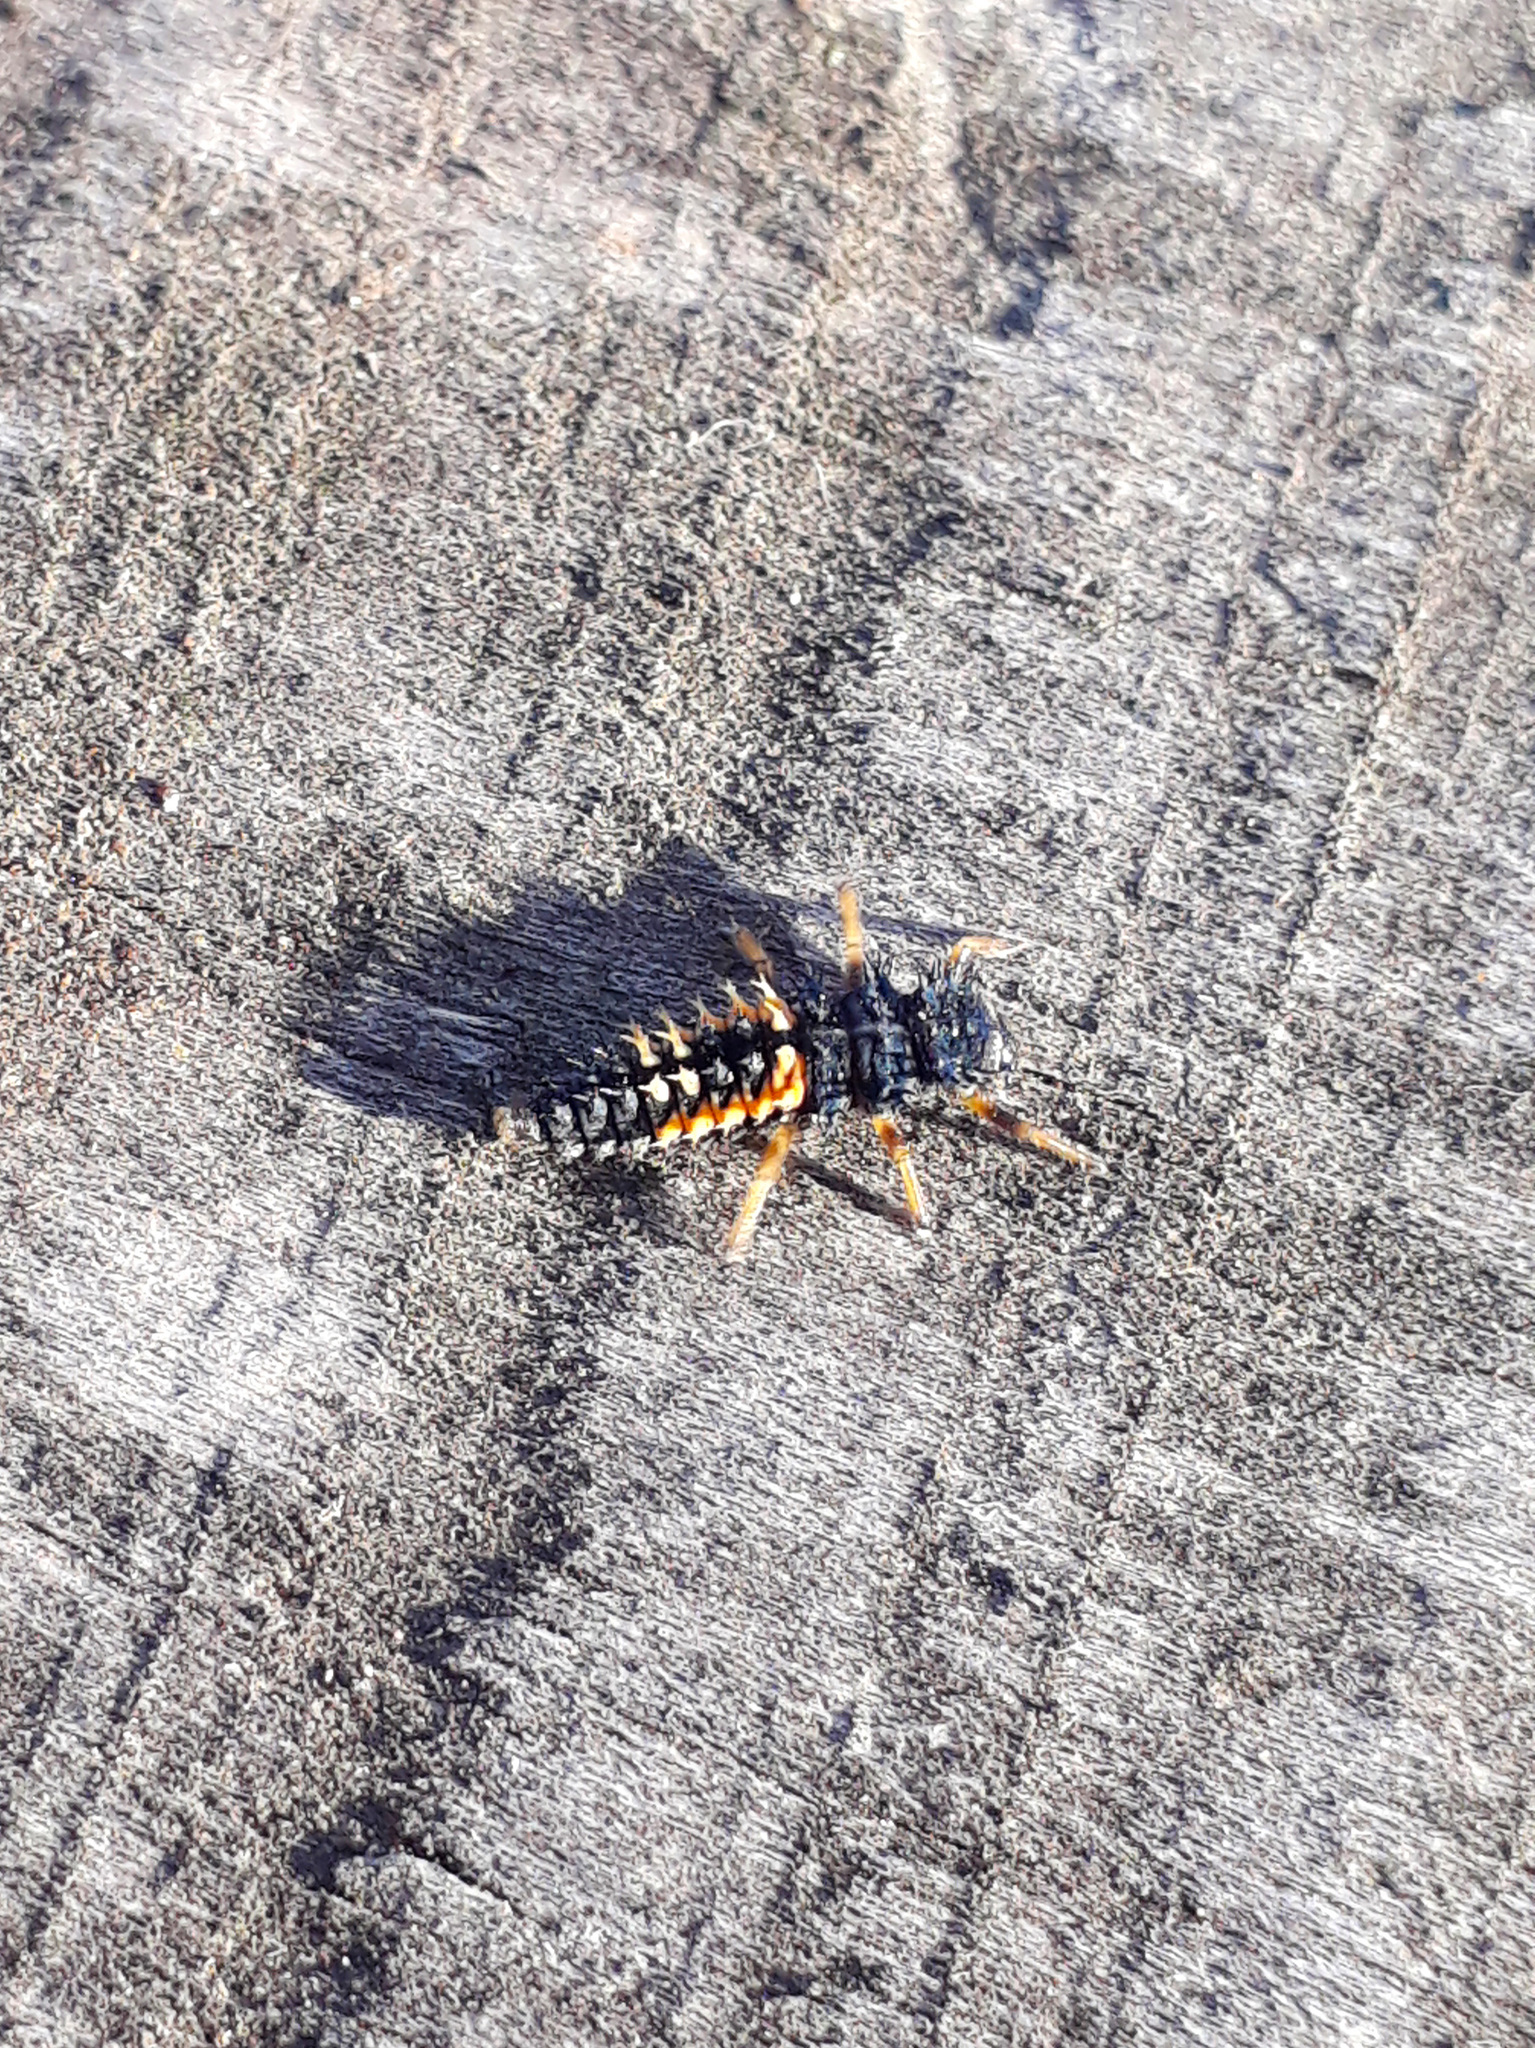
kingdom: Animalia
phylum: Arthropoda
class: Insecta
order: Coleoptera
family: Coccinellidae
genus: Harmonia
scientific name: Harmonia axyridis
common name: Harlequin ladybird
